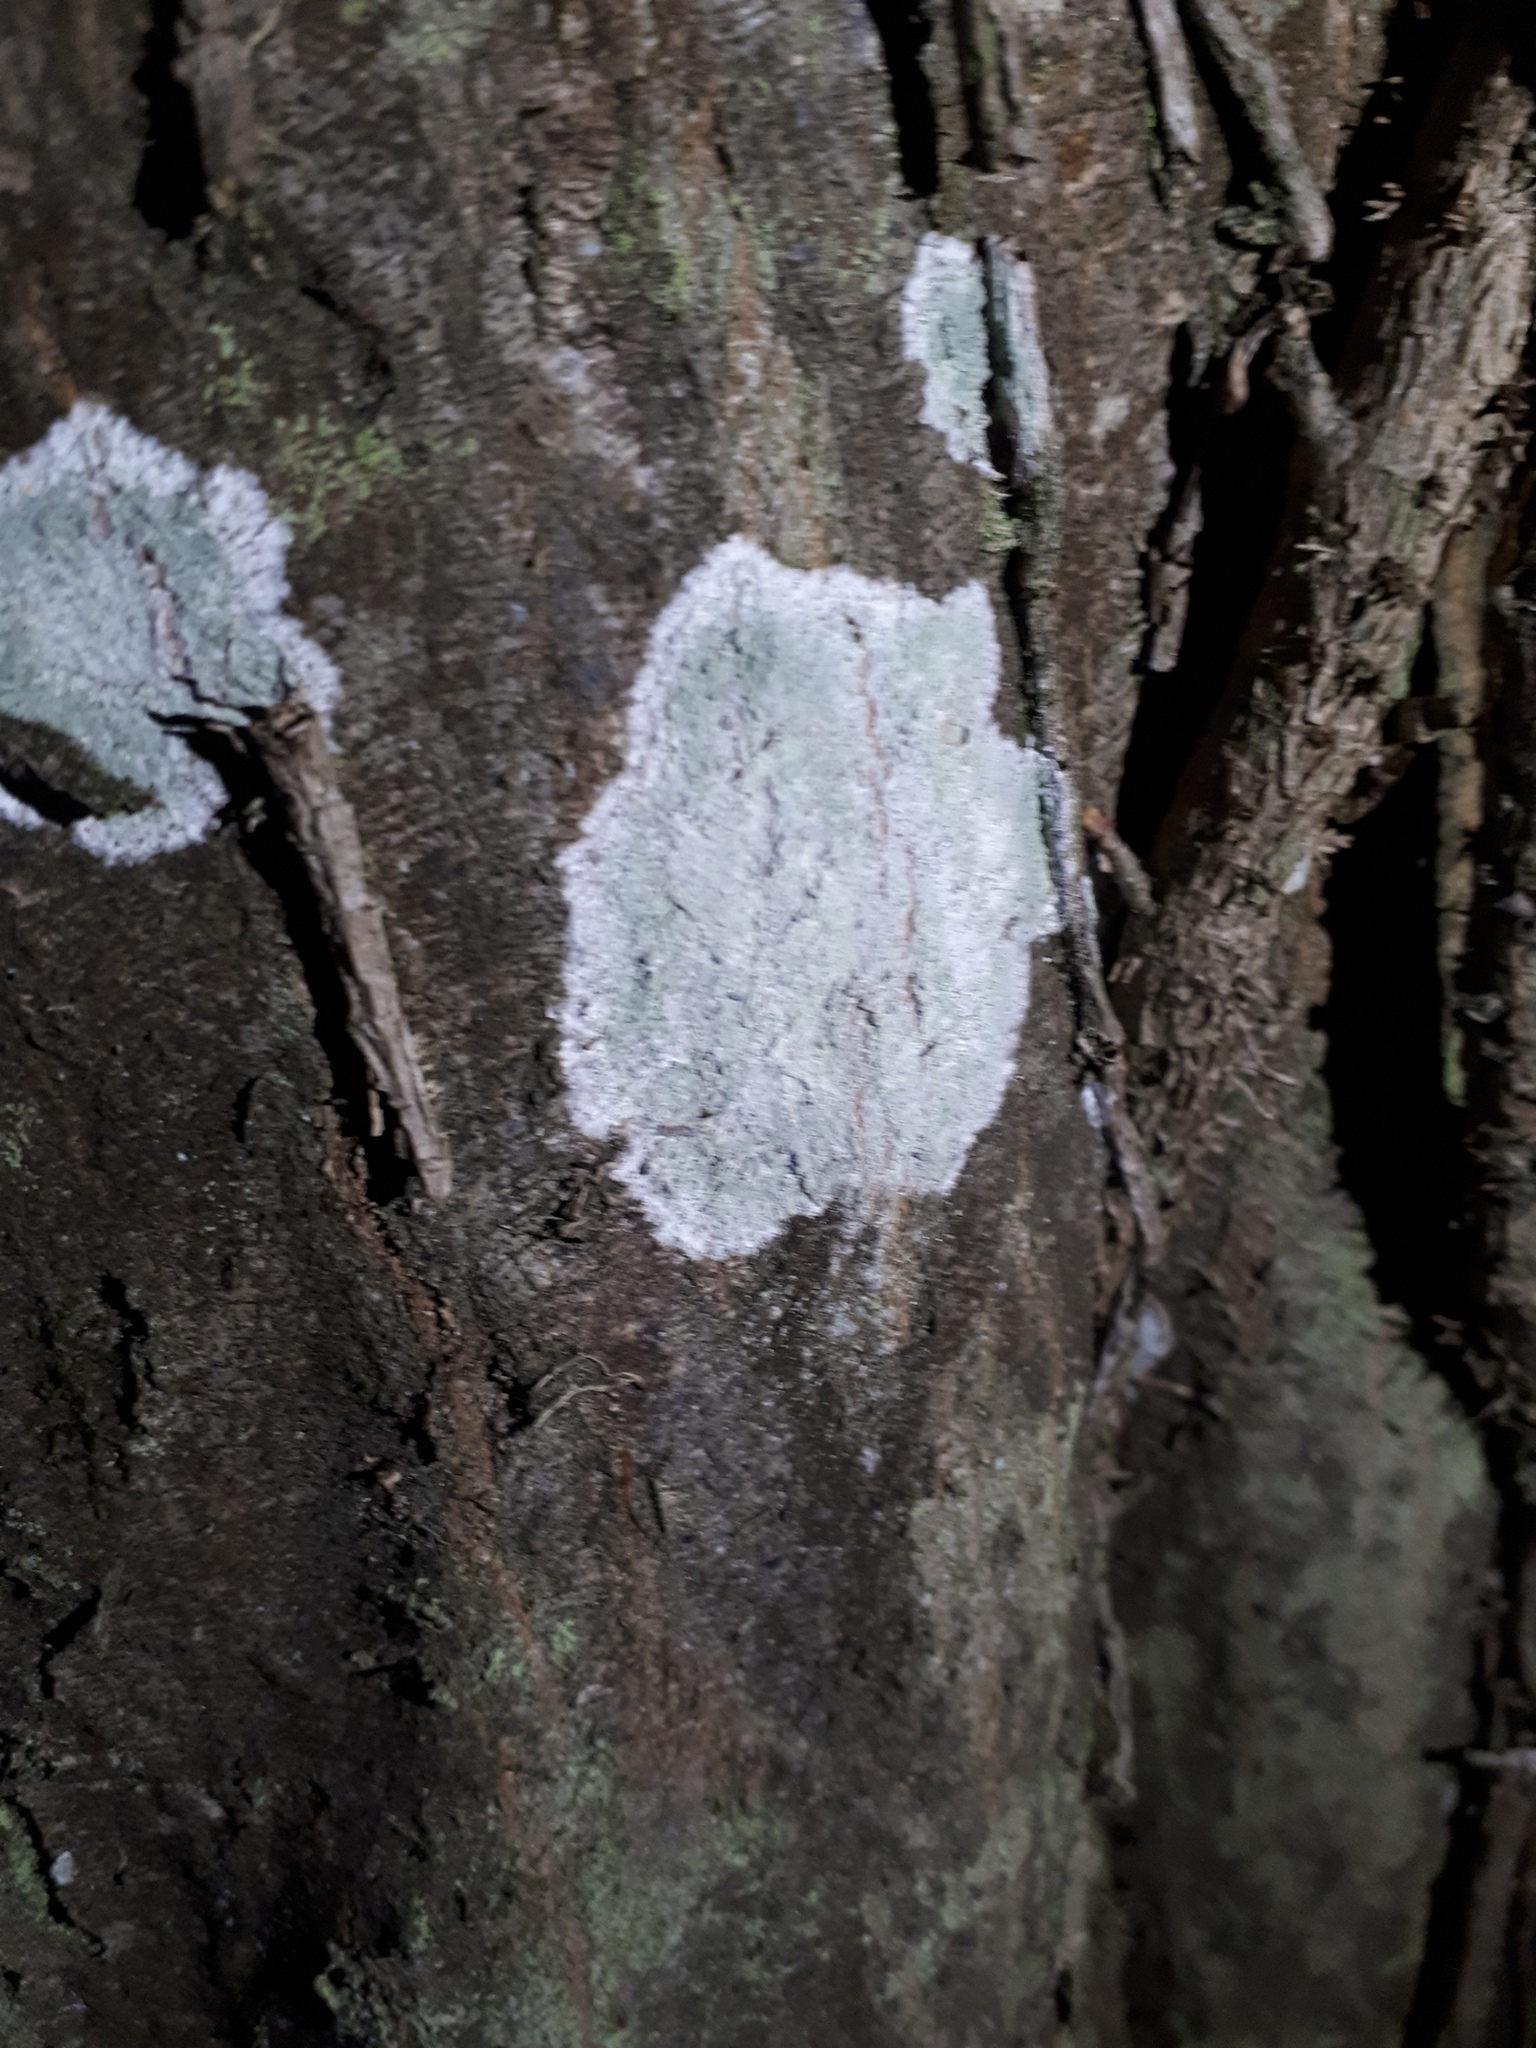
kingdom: Fungi
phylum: Ascomycota
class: Lecanoromycetes
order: Ostropales
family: Phlyctidaceae
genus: Phlyctis
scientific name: Phlyctis argena
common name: Whitewash lichen
